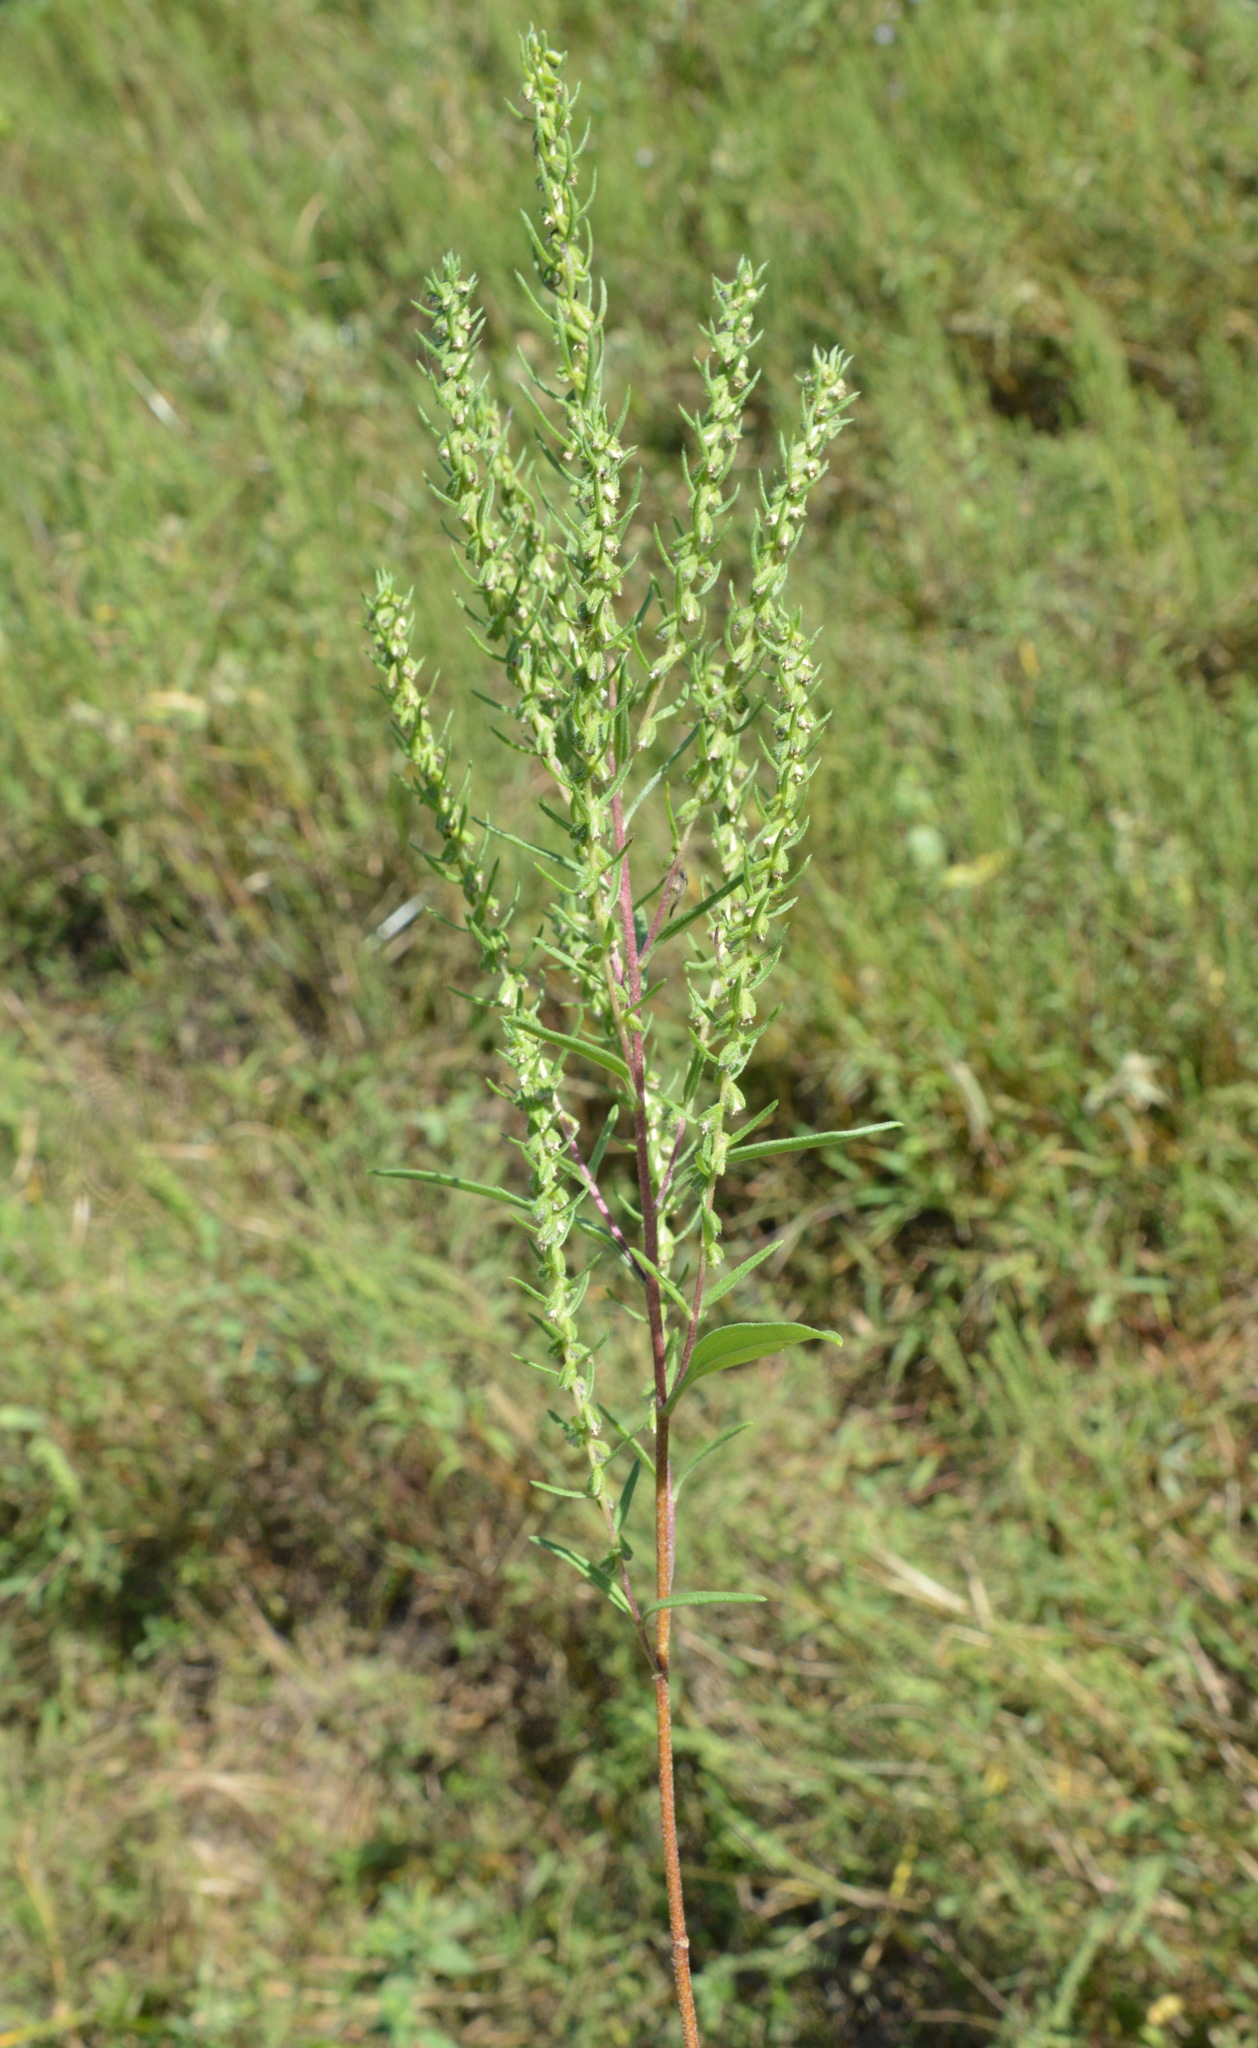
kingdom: Plantae
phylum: Tracheophyta
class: Magnoliopsida
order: Asterales
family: Asteraceae
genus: Iva
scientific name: Iva asperifolia
